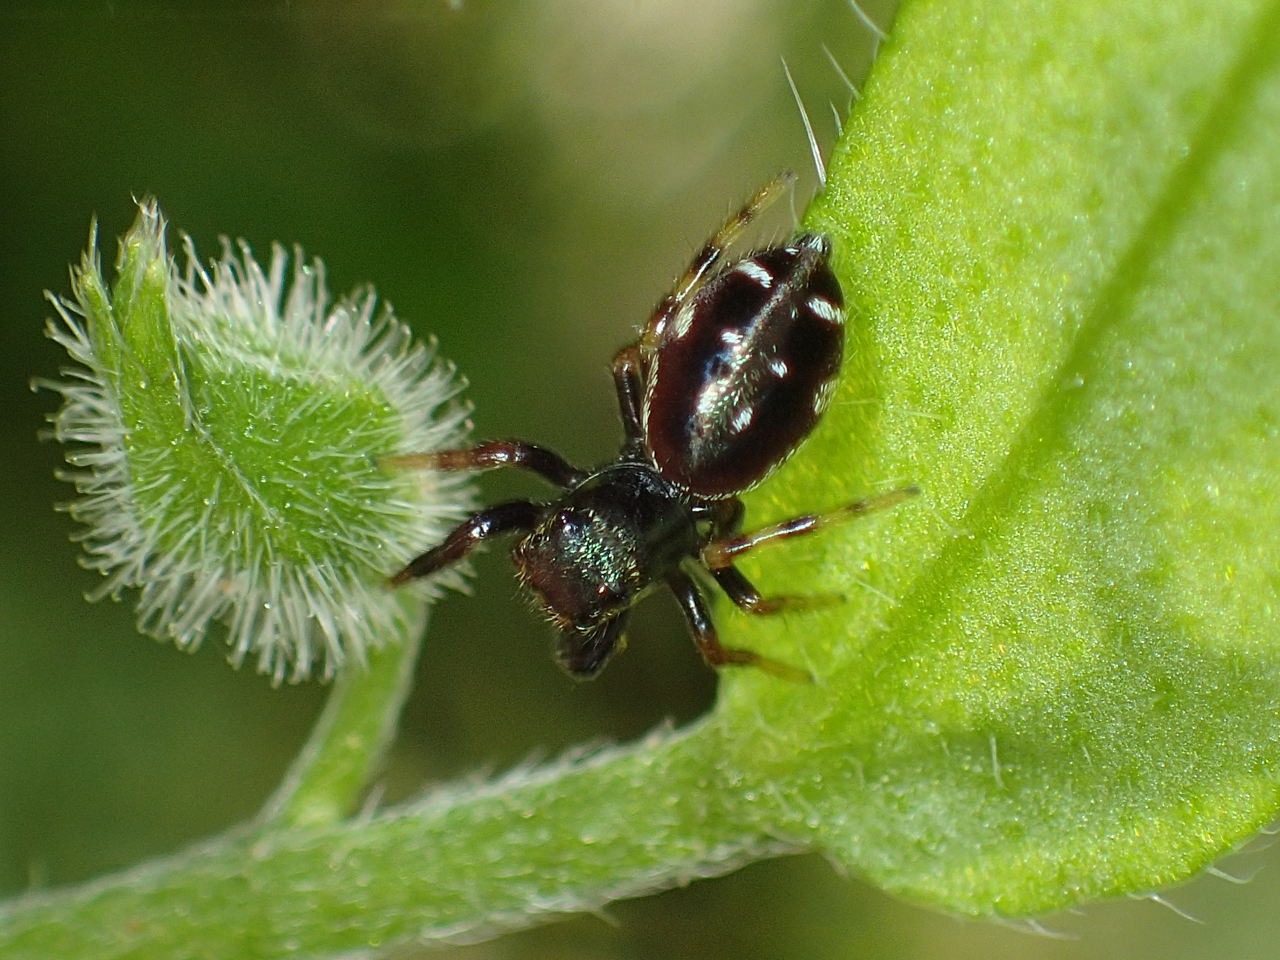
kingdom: Animalia
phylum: Arthropoda
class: Arachnida
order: Araneae
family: Salticidae
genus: Paraphidippus
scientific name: Paraphidippus aurantius
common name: Jumping spiders
